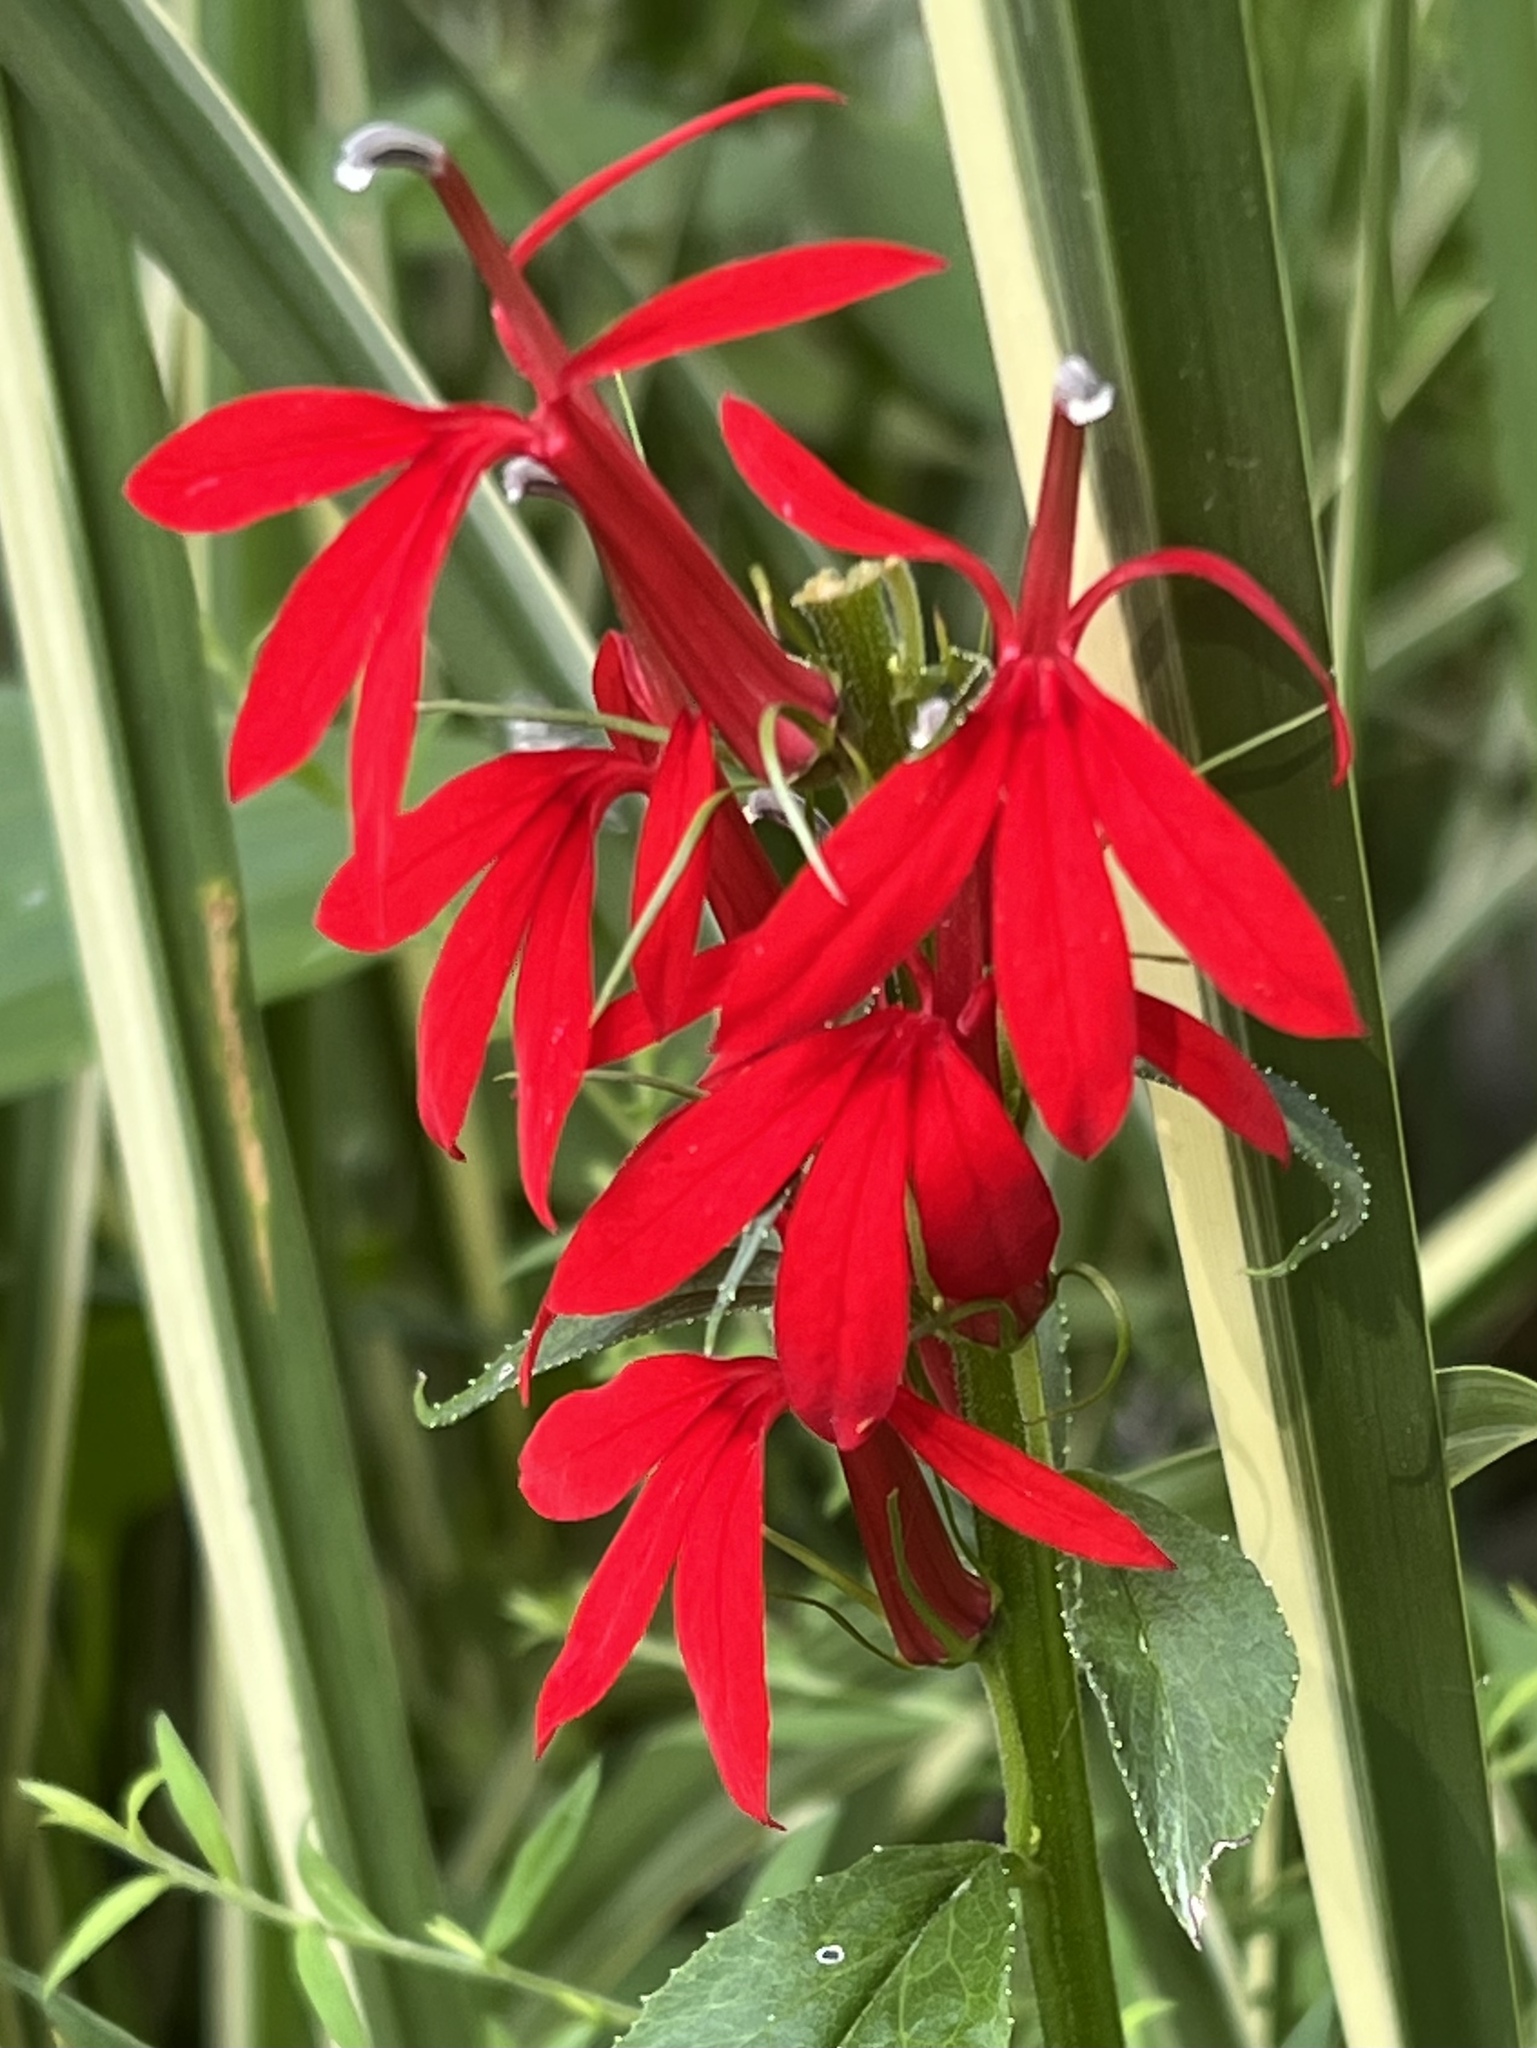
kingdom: Plantae
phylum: Tracheophyta
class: Magnoliopsida
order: Asterales
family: Campanulaceae
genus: Lobelia
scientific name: Lobelia cardinalis
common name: Cardinal flower
